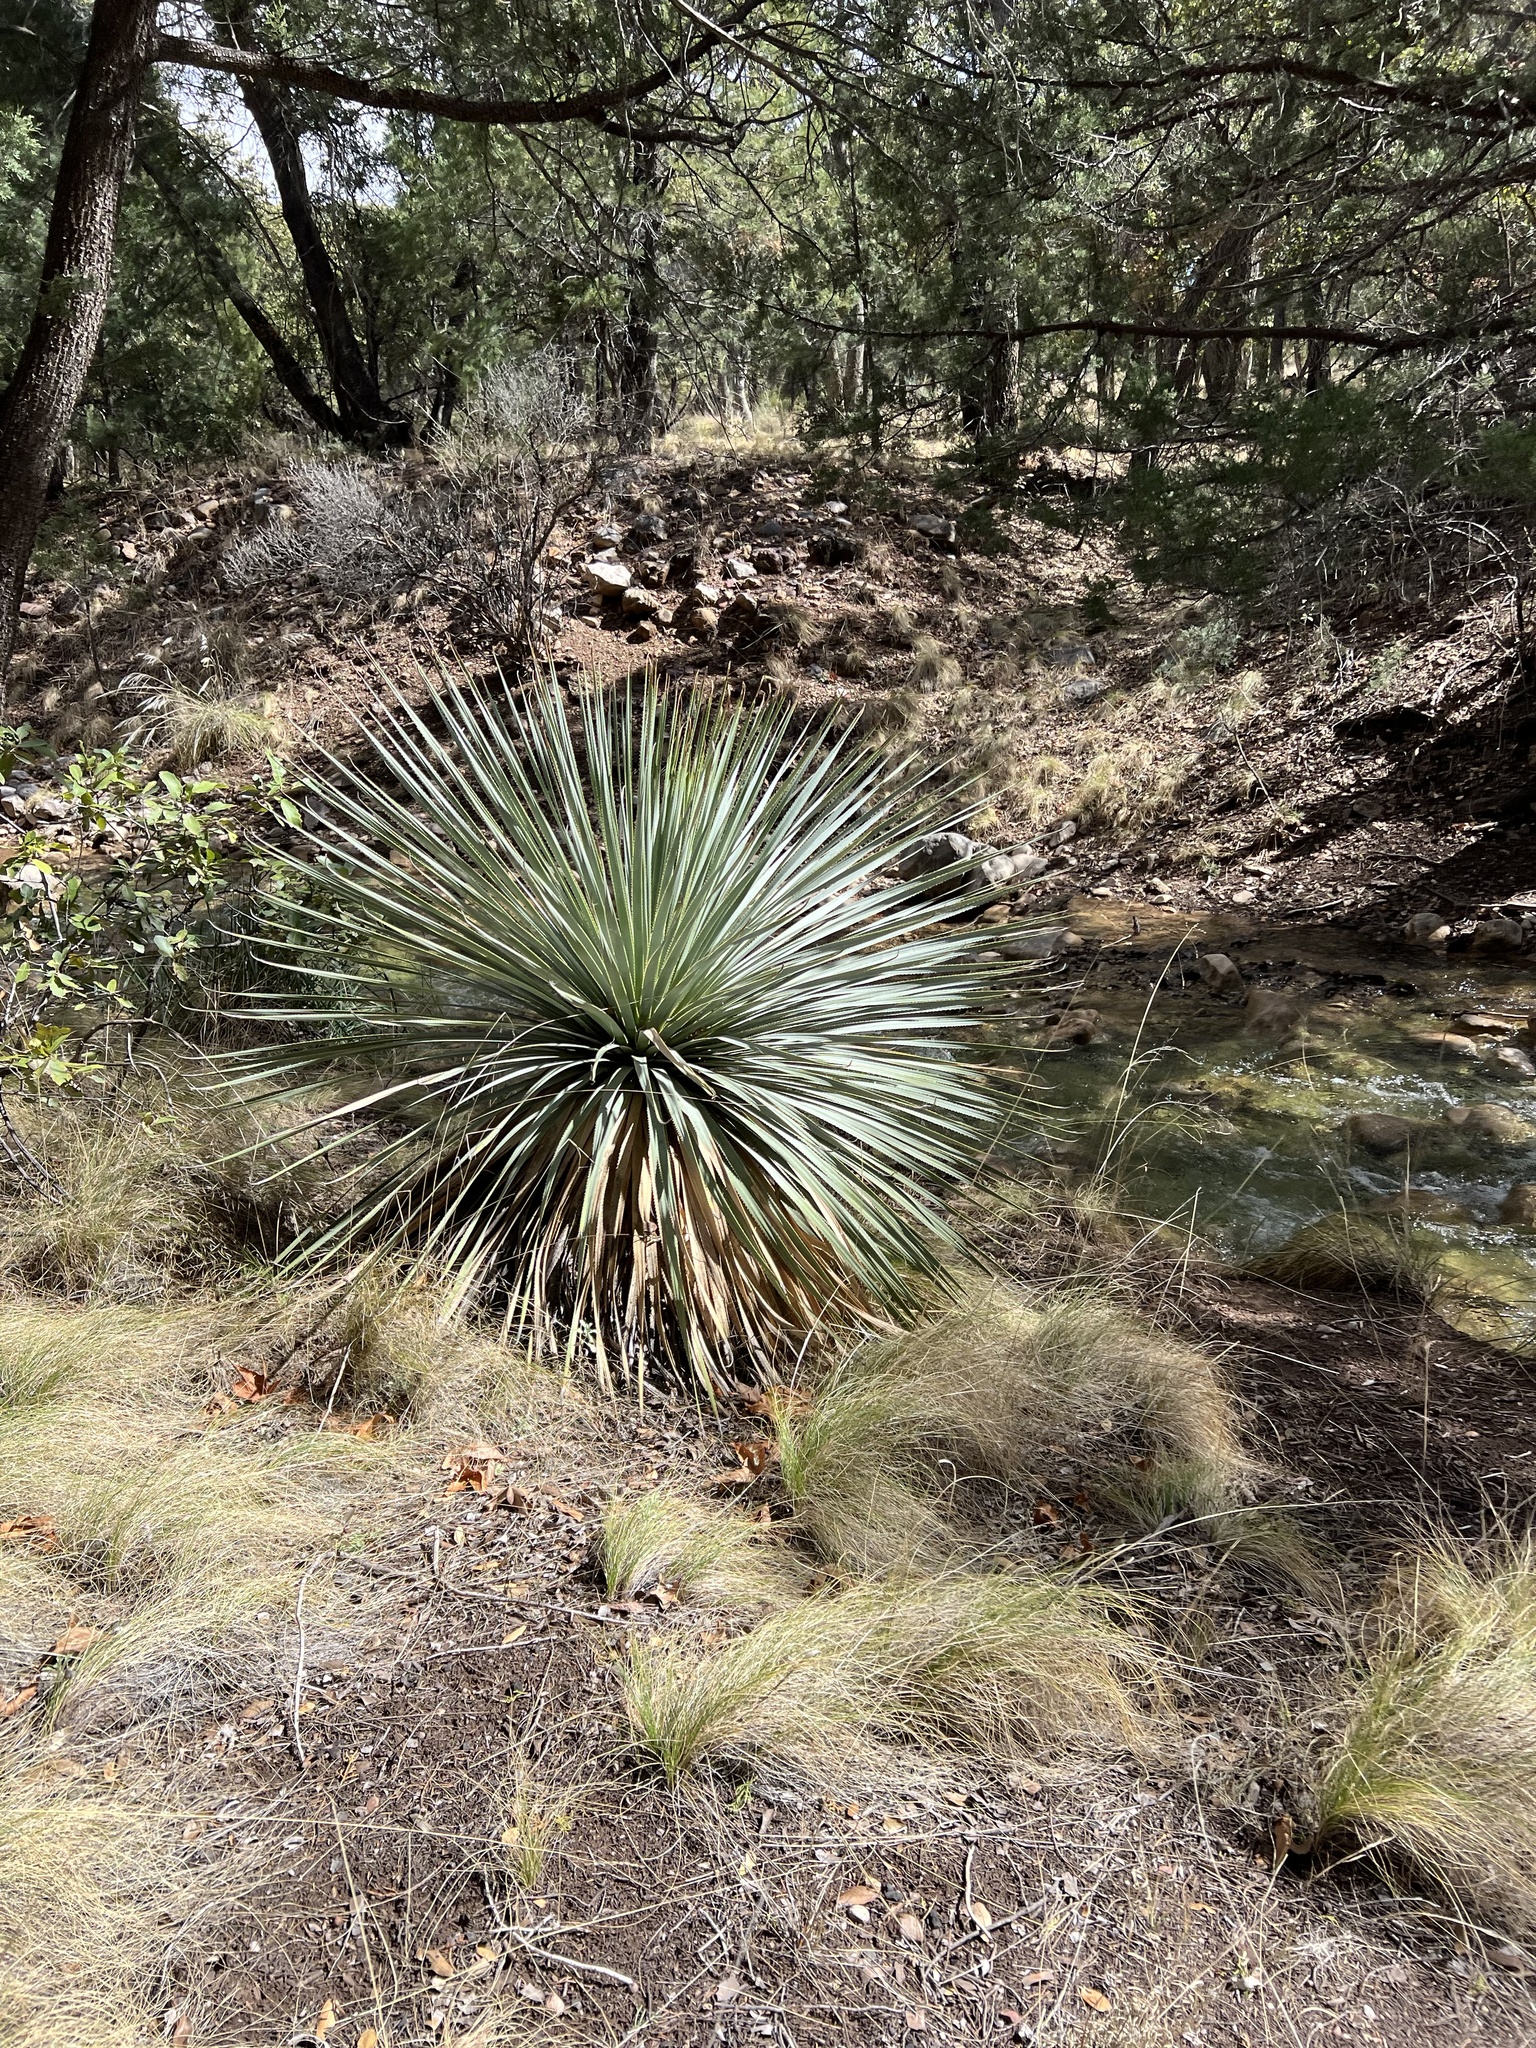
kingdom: Plantae
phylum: Tracheophyta
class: Liliopsida
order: Asparagales
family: Asparagaceae
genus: Dasylirion
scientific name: Dasylirion wheeleri
